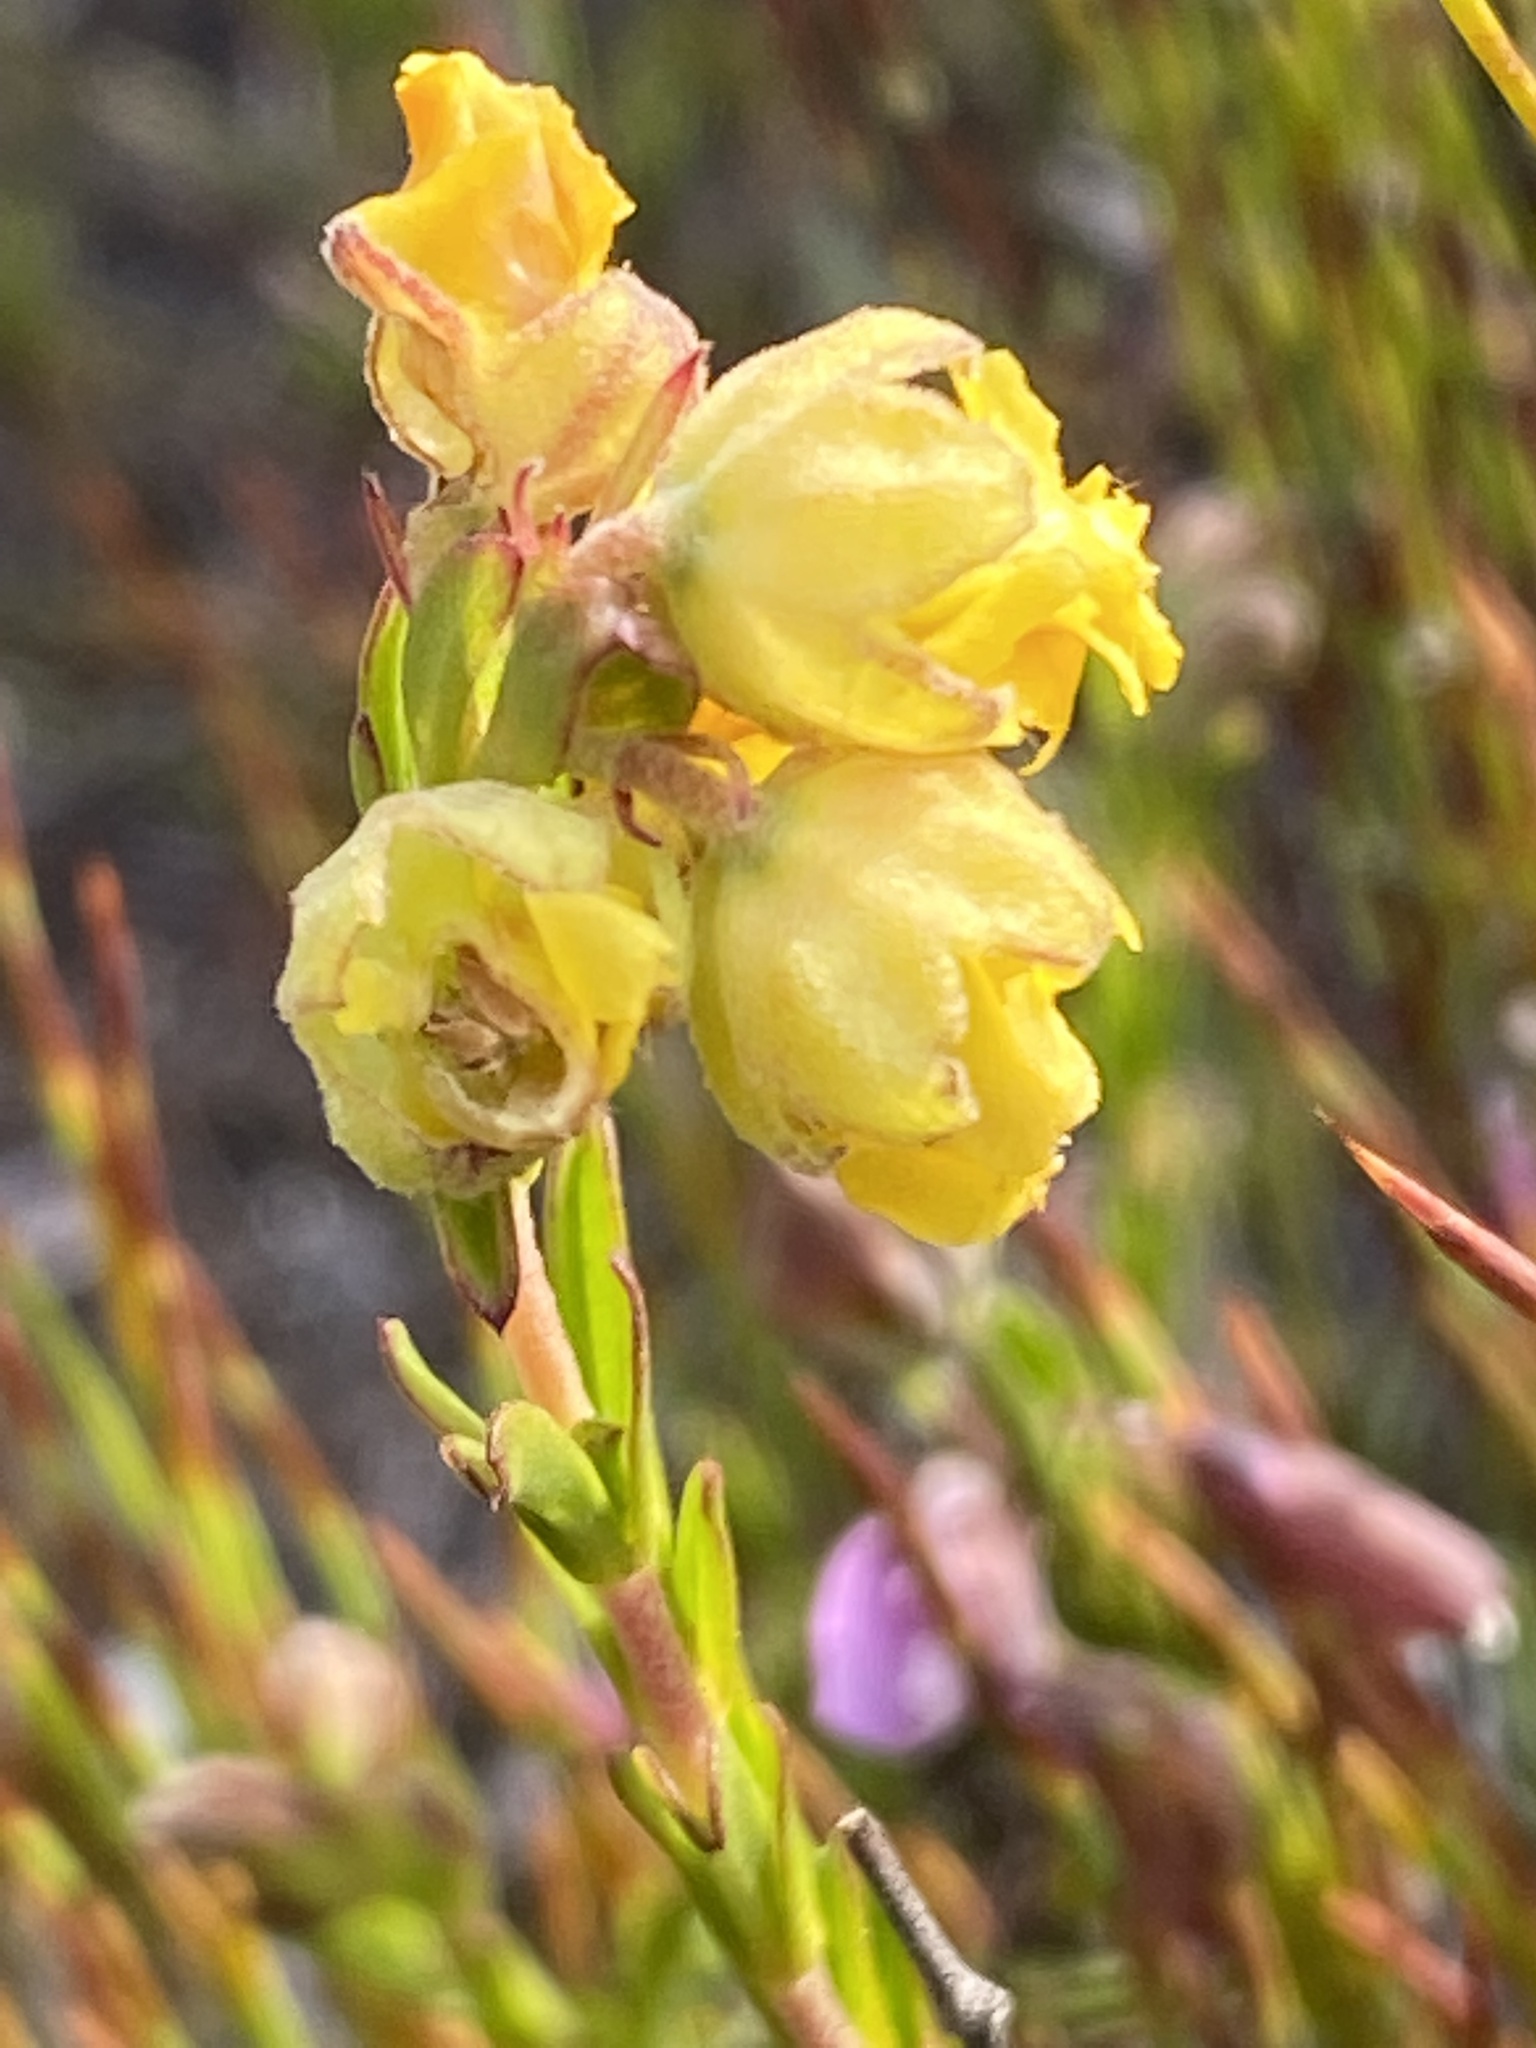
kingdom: Plantae
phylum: Tracheophyta
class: Magnoliopsida
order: Malvales
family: Malvaceae
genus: Hermannia
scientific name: Hermannia concinnifolia
